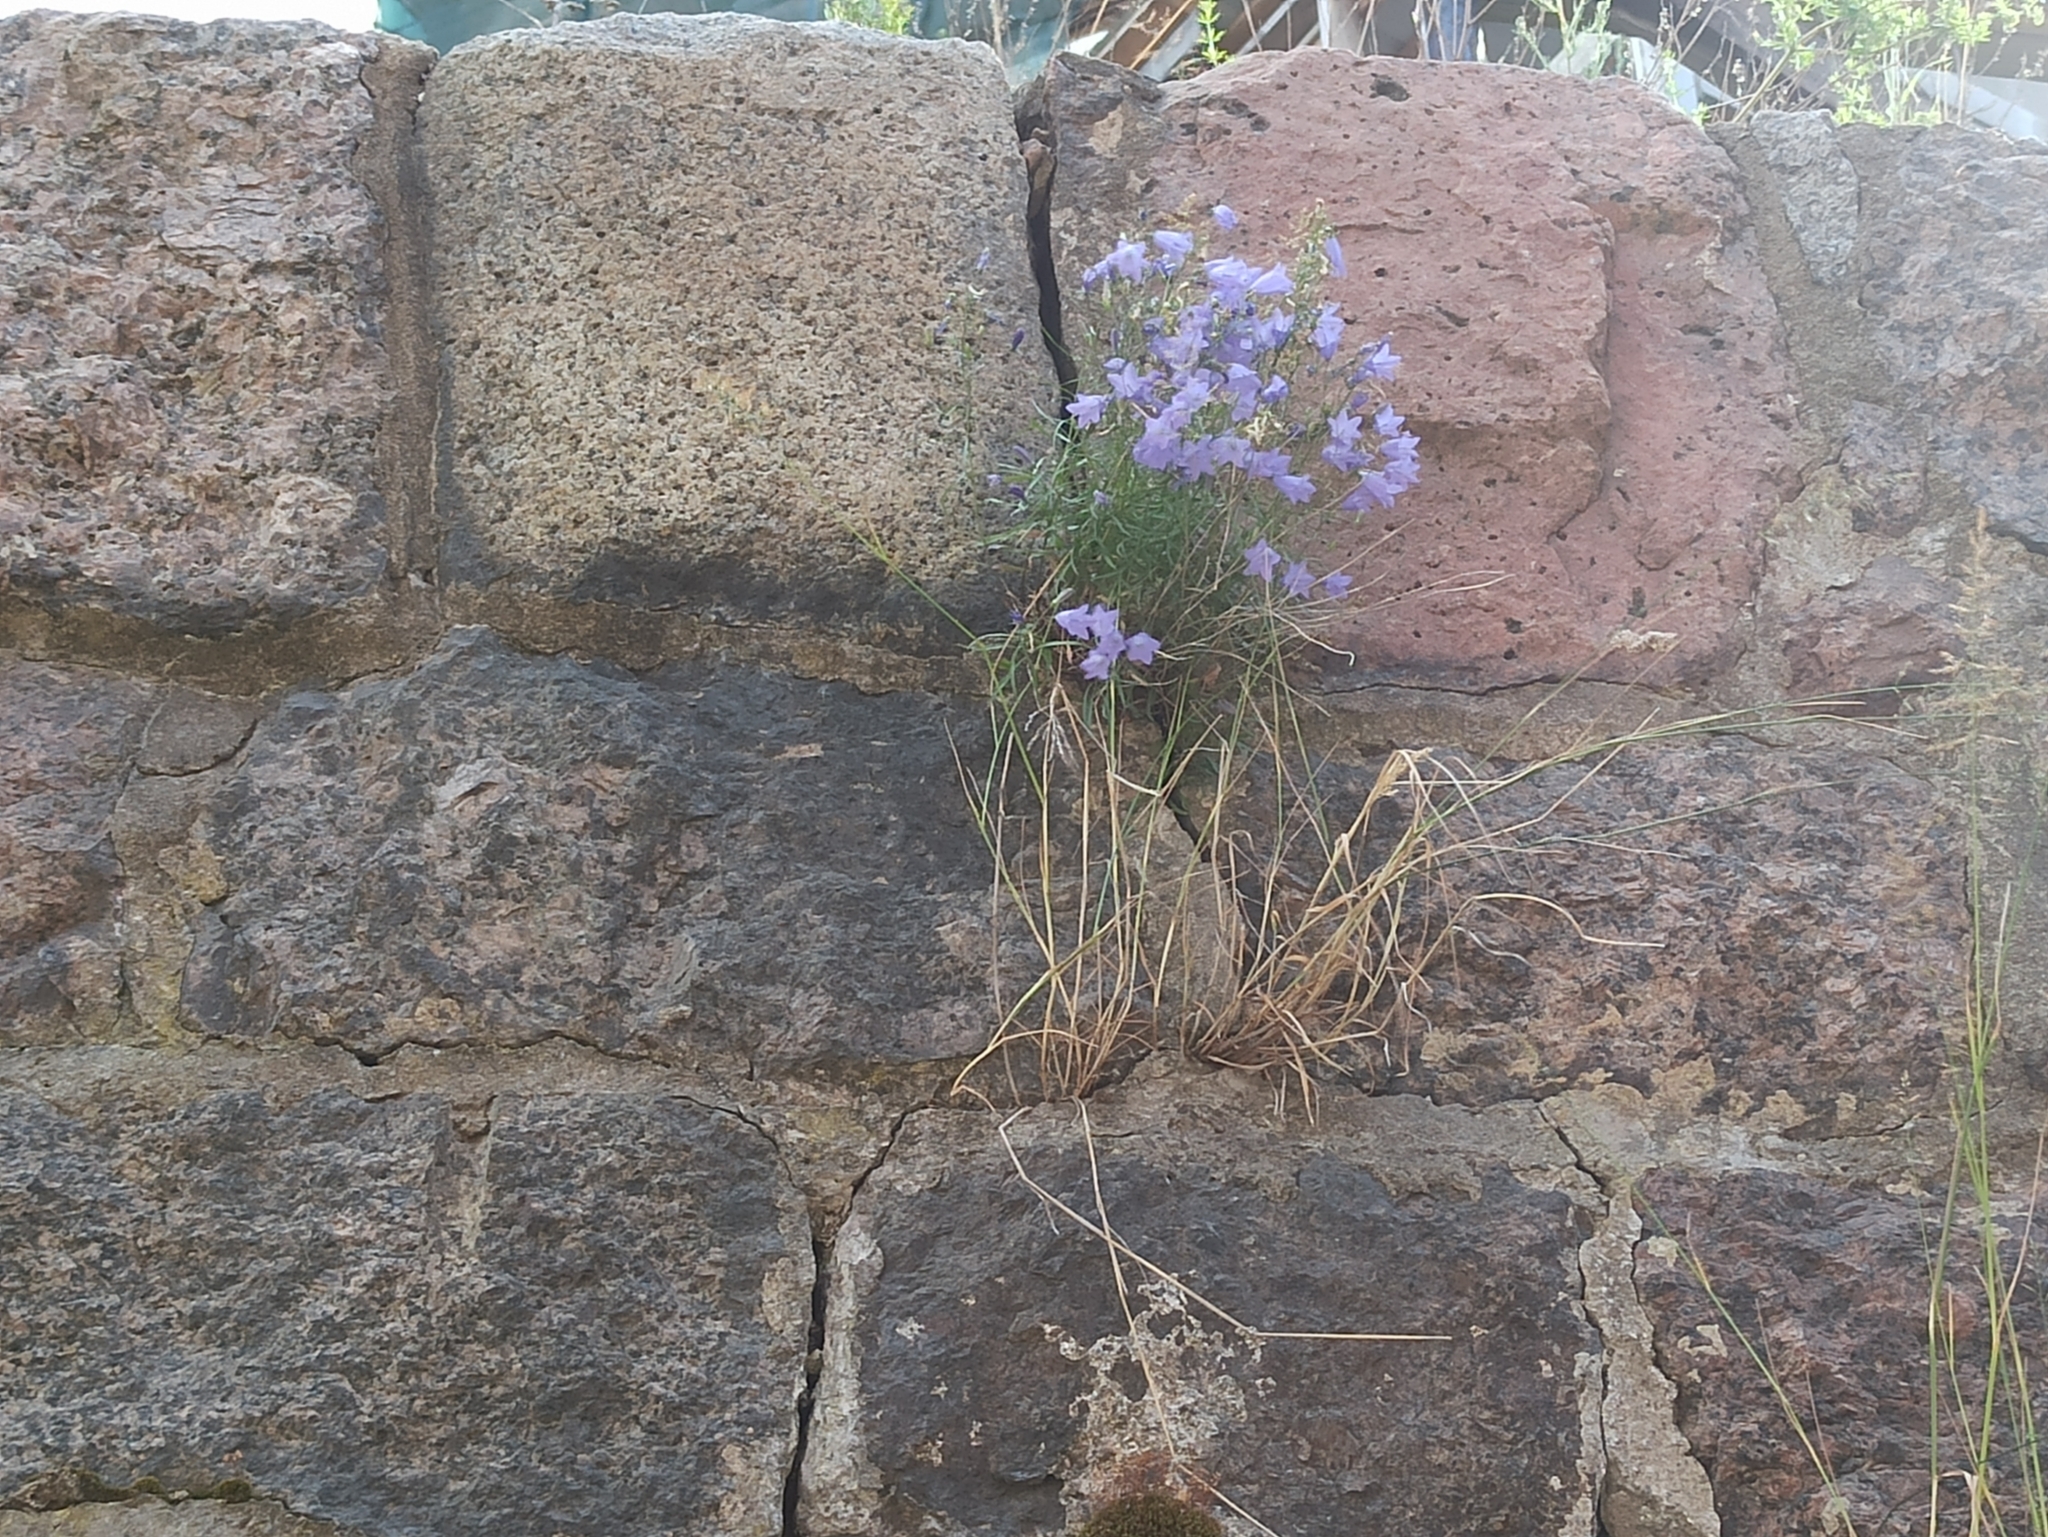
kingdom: Plantae
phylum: Tracheophyta
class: Magnoliopsida
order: Asterales
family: Campanulaceae
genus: Campanula
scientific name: Campanula rotundifolia
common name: Harebell
